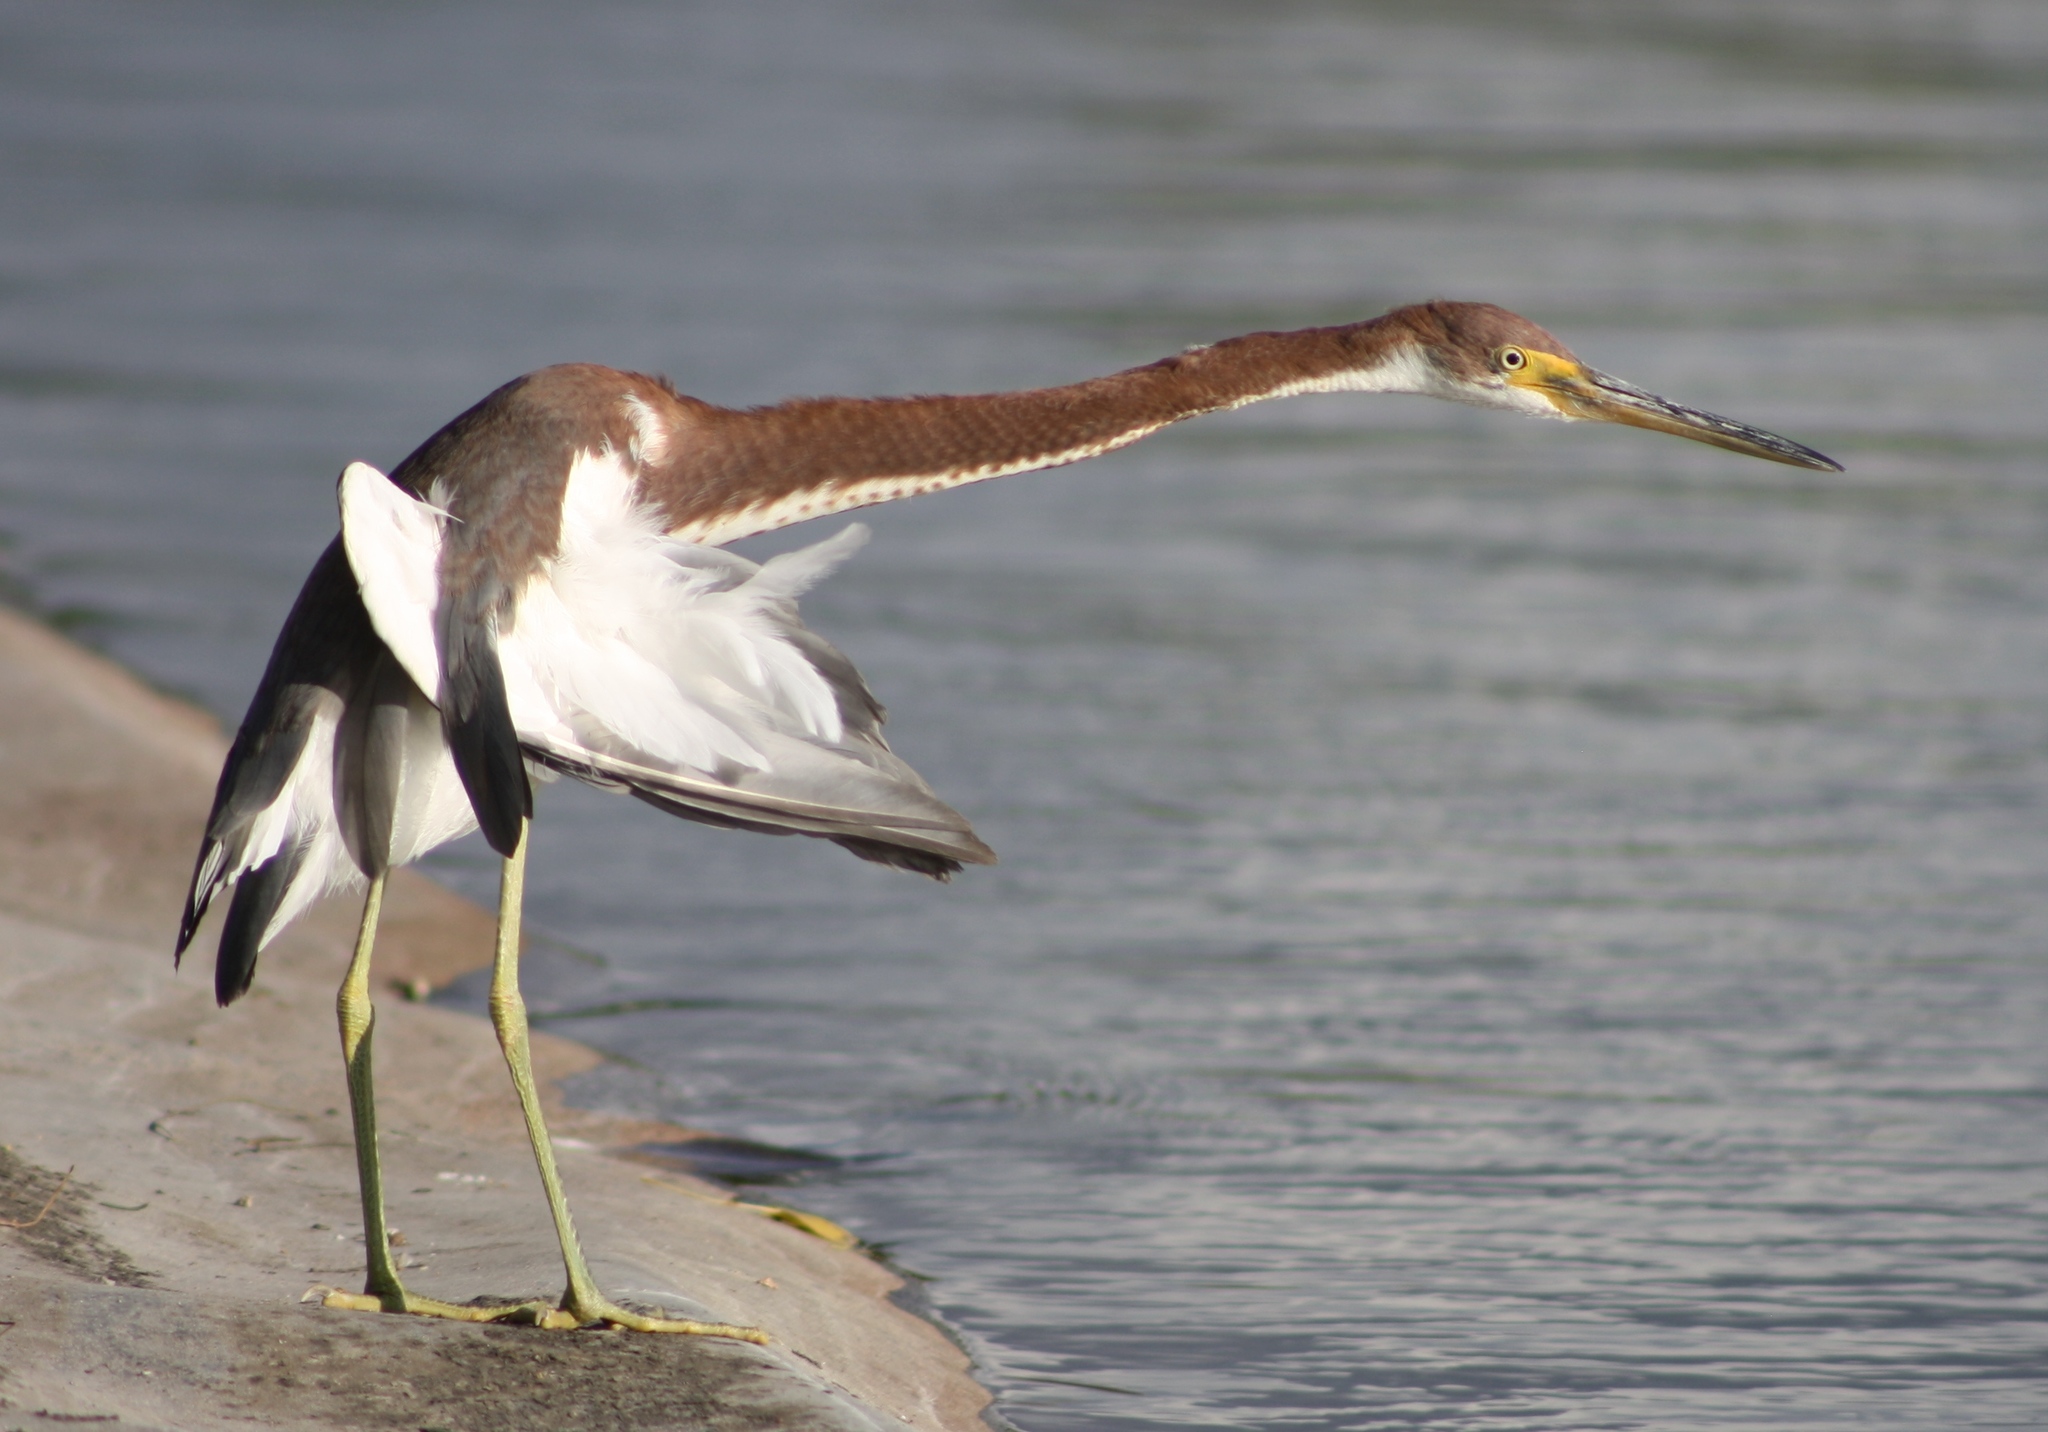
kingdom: Animalia
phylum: Chordata
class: Aves
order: Pelecaniformes
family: Ardeidae
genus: Egretta
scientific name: Egretta tricolor
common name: Tricolored heron
